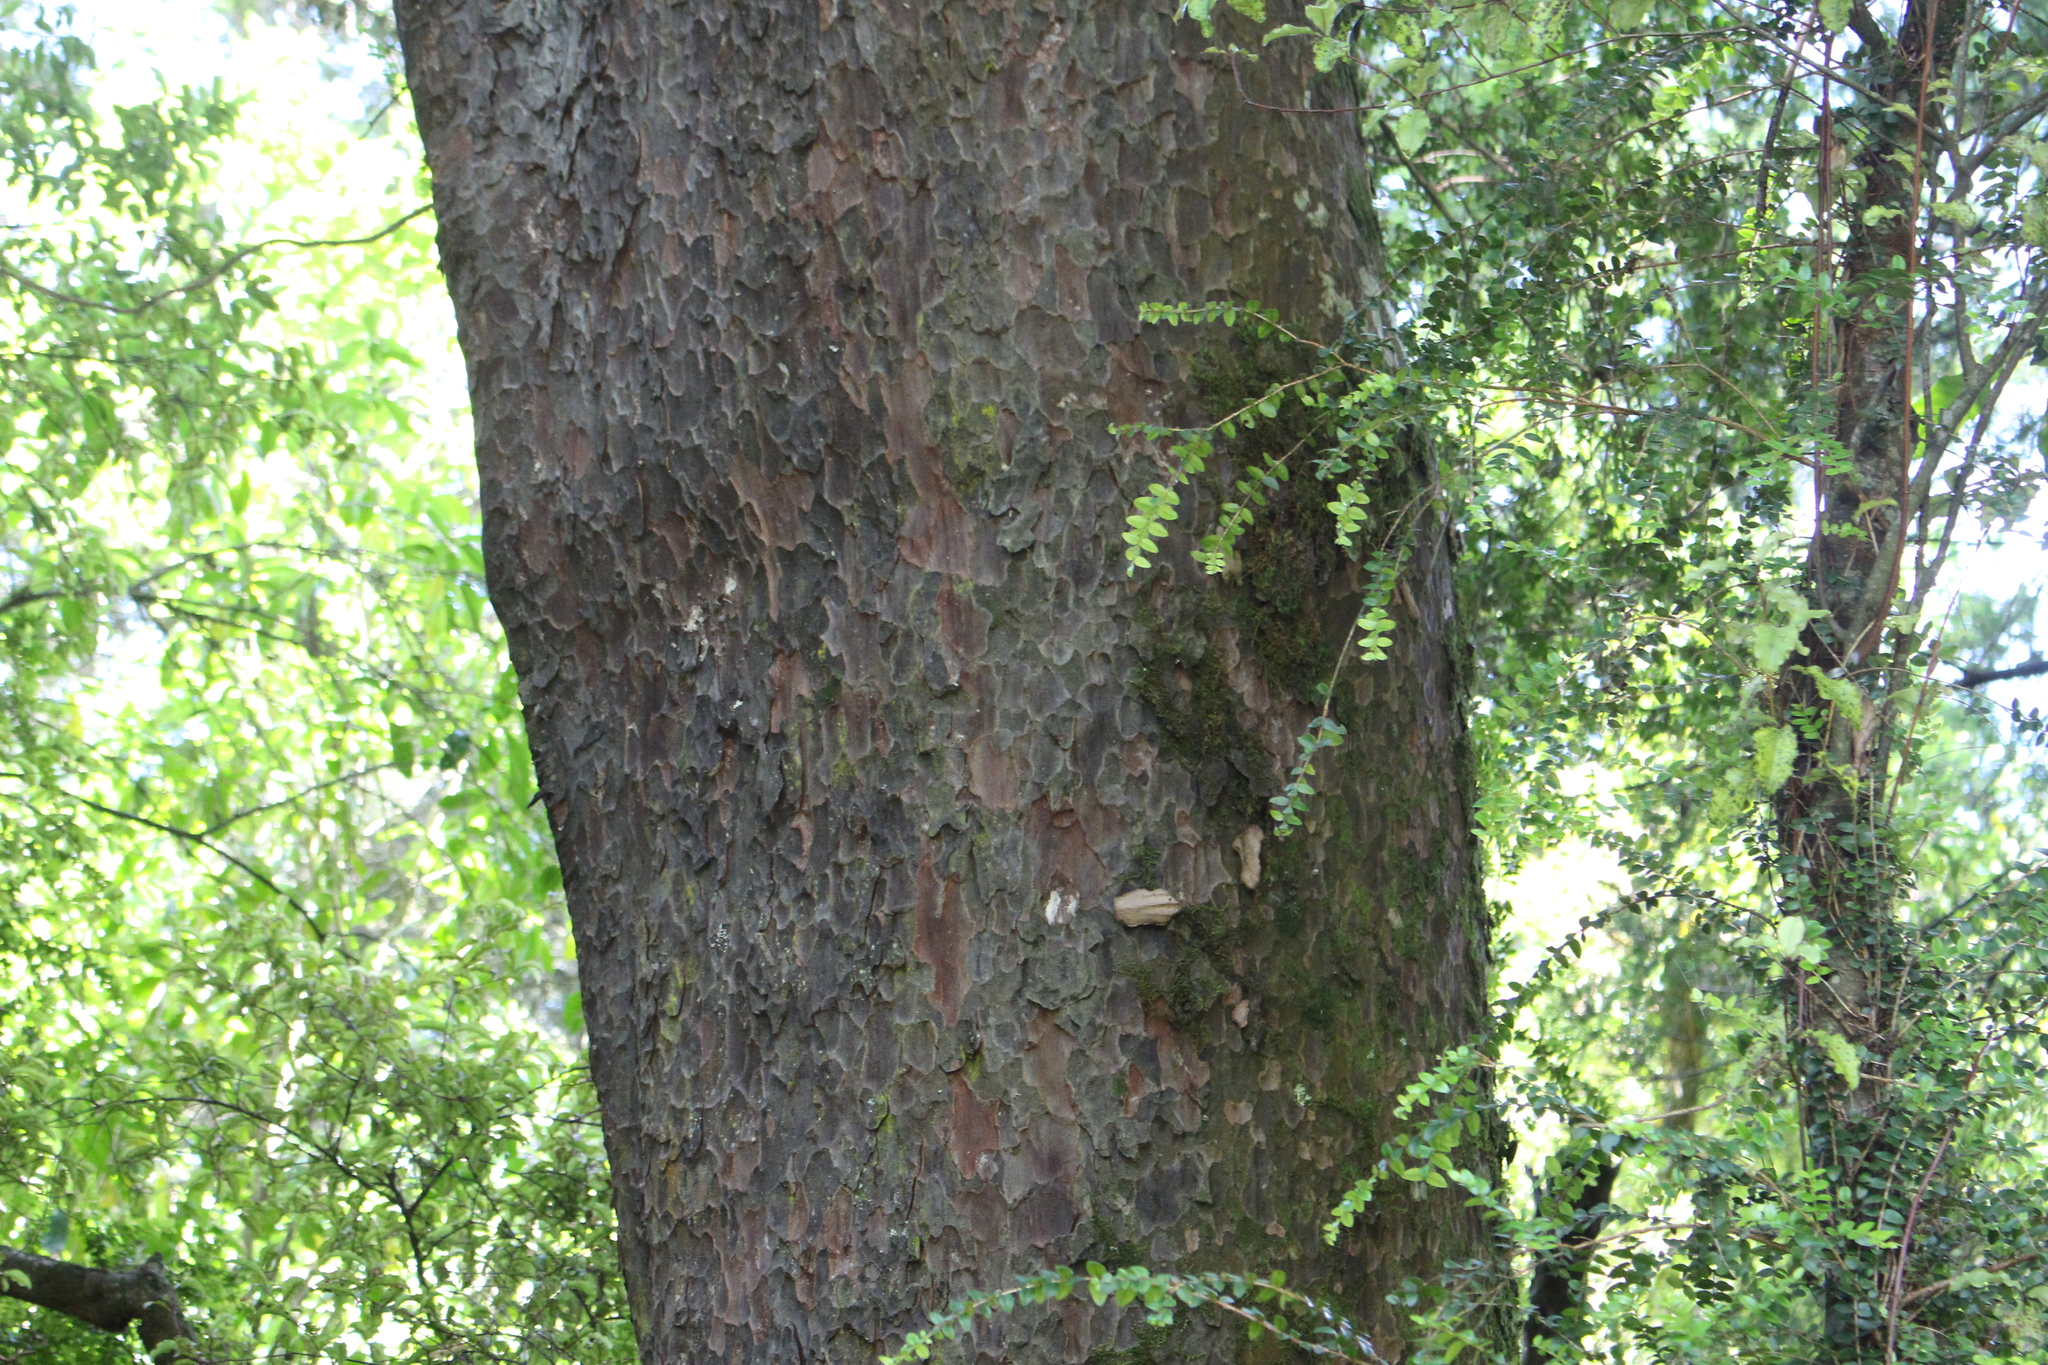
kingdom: Plantae
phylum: Tracheophyta
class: Pinopsida
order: Pinales
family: Podocarpaceae
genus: Prumnopitys
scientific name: Prumnopitys taxifolia
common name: Matai
